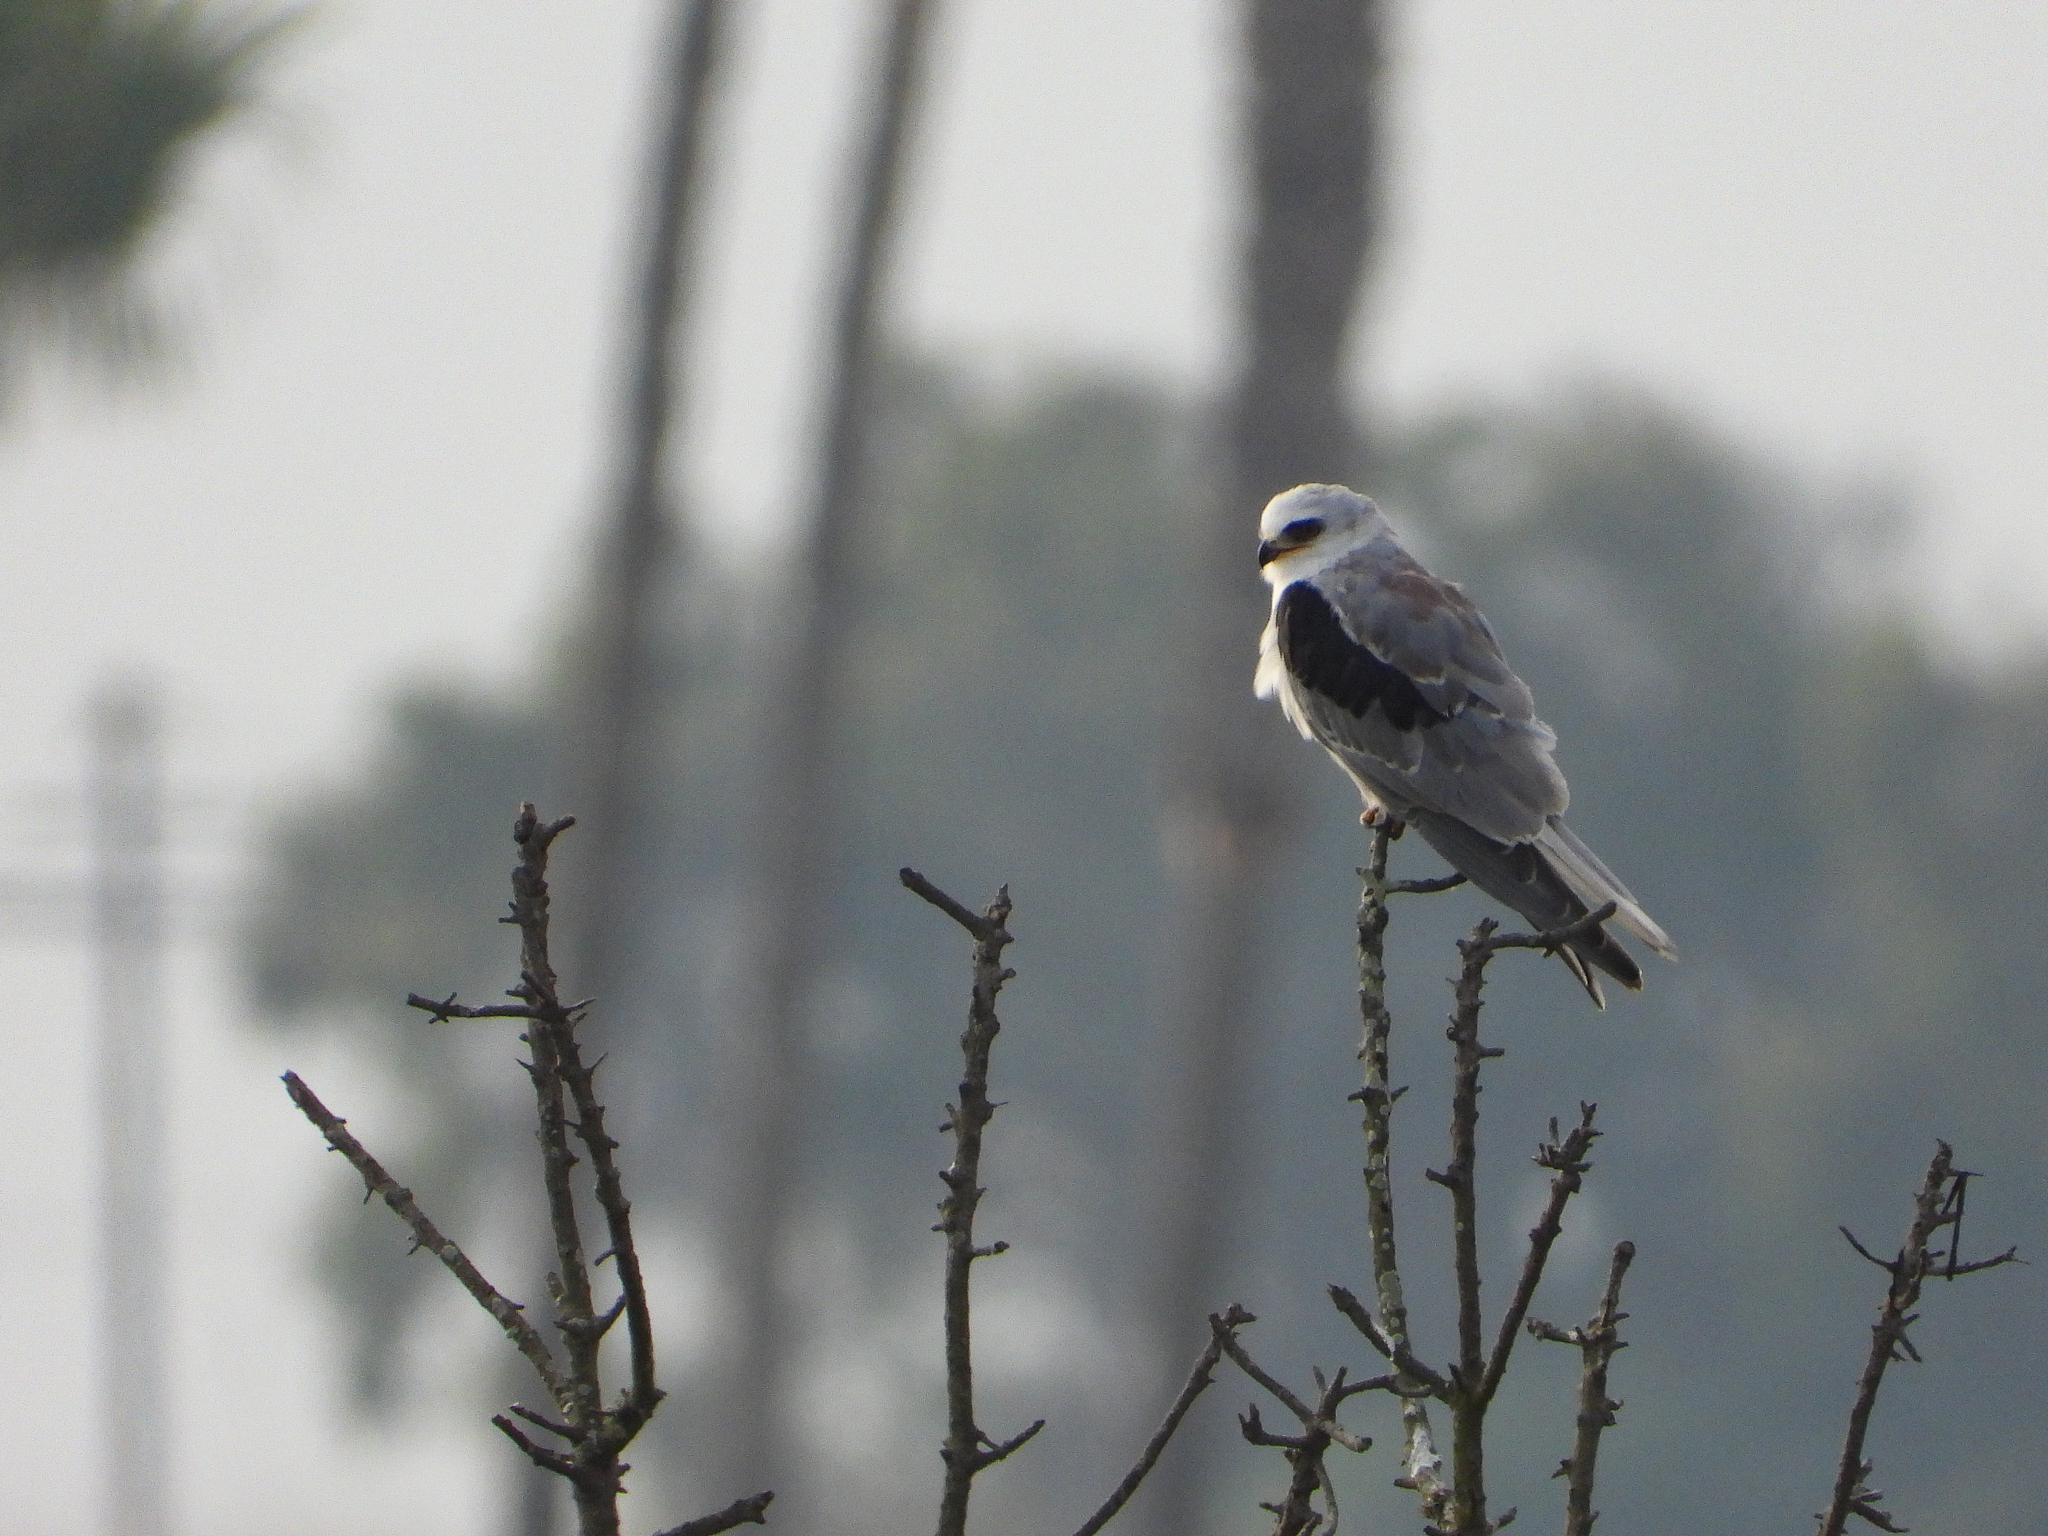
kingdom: Animalia
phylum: Chordata
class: Aves
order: Accipitriformes
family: Accipitridae
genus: Elanus
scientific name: Elanus leucurus
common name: White-tailed kite
